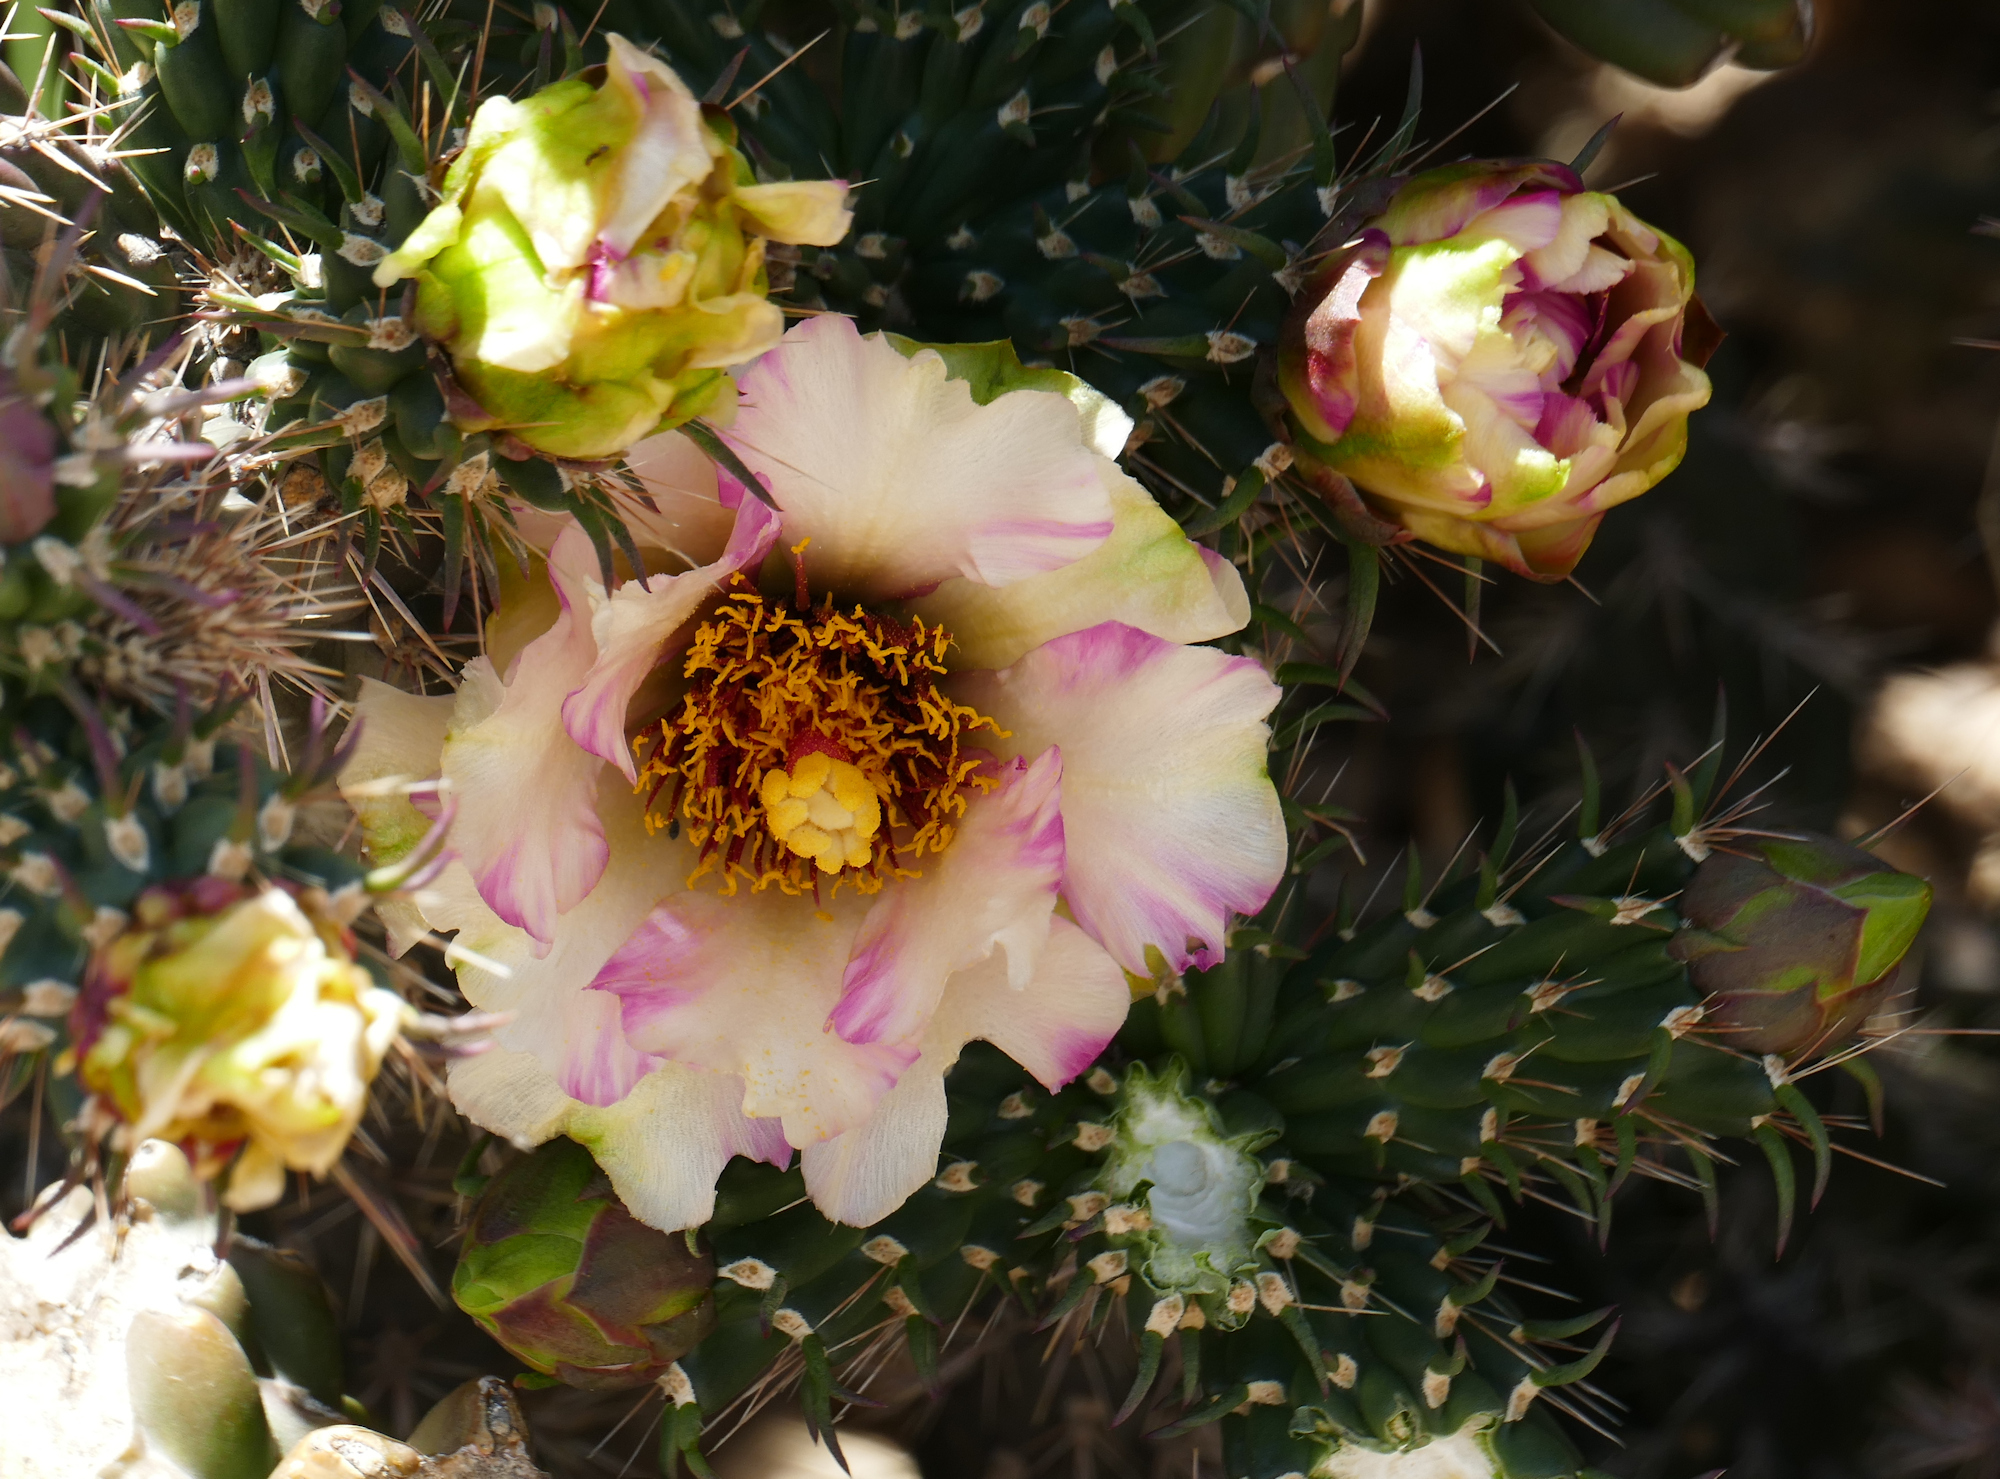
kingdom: Plantae
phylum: Tracheophyta
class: Magnoliopsida
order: Caryophyllales
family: Cactaceae
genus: Cylindropuntia
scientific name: Cylindropuntia imbricata
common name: Candelabrum cactus
